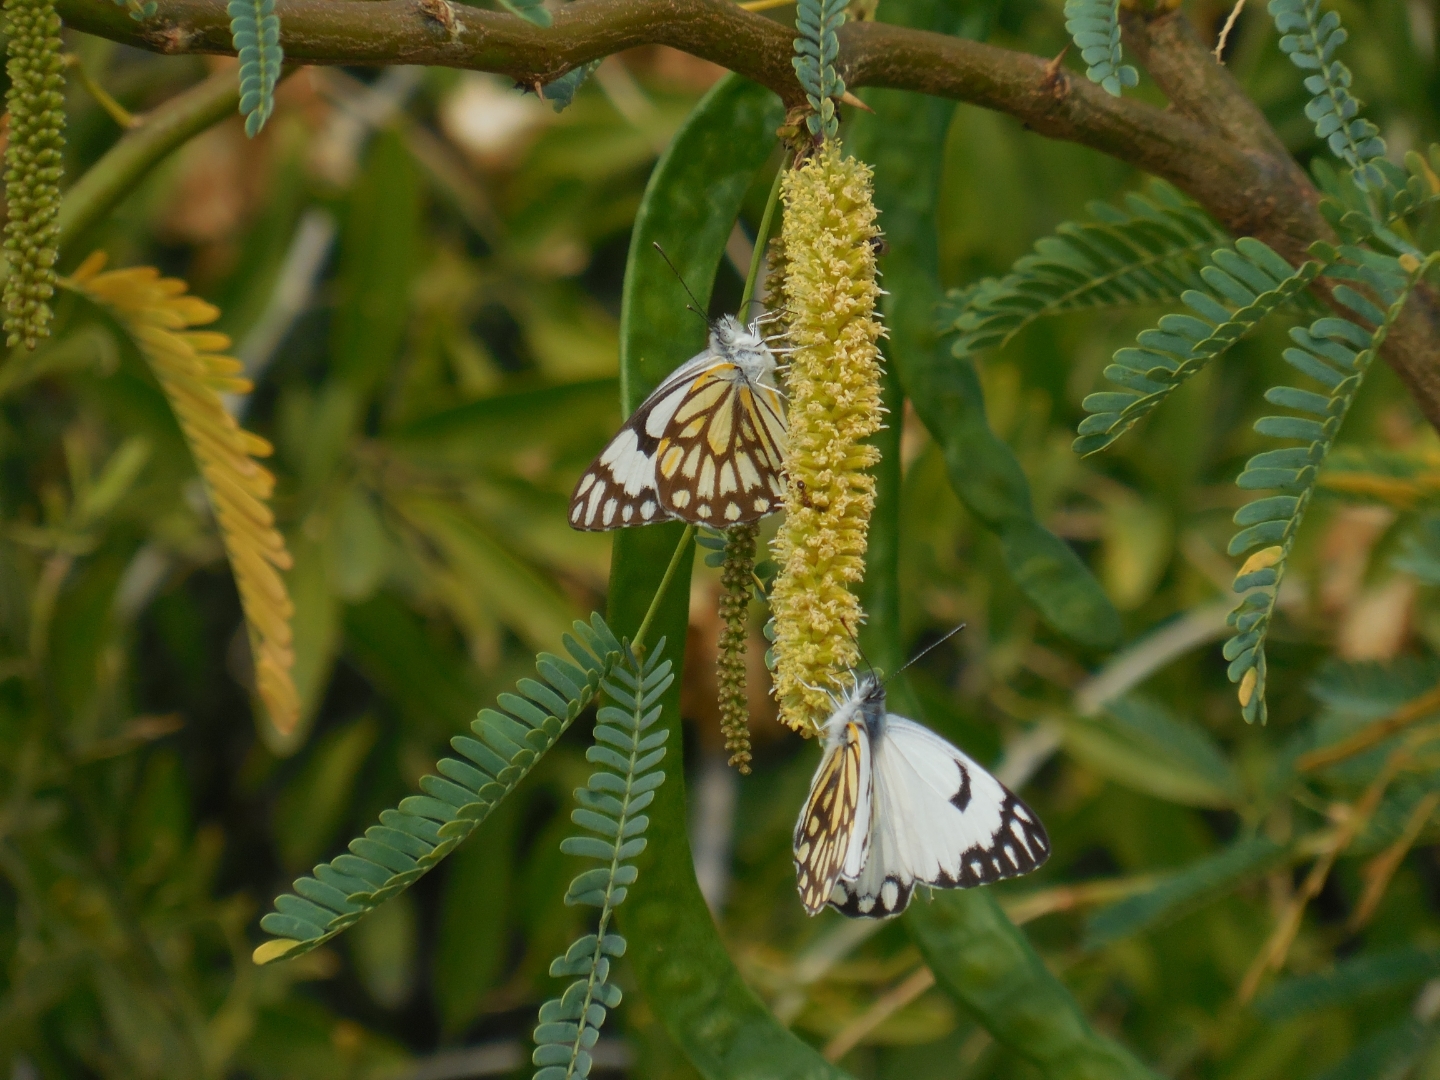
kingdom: Animalia
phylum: Arthropoda
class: Insecta
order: Lepidoptera
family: Pieridae
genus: Belenois
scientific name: Belenois aurota
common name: Brown-veined white
